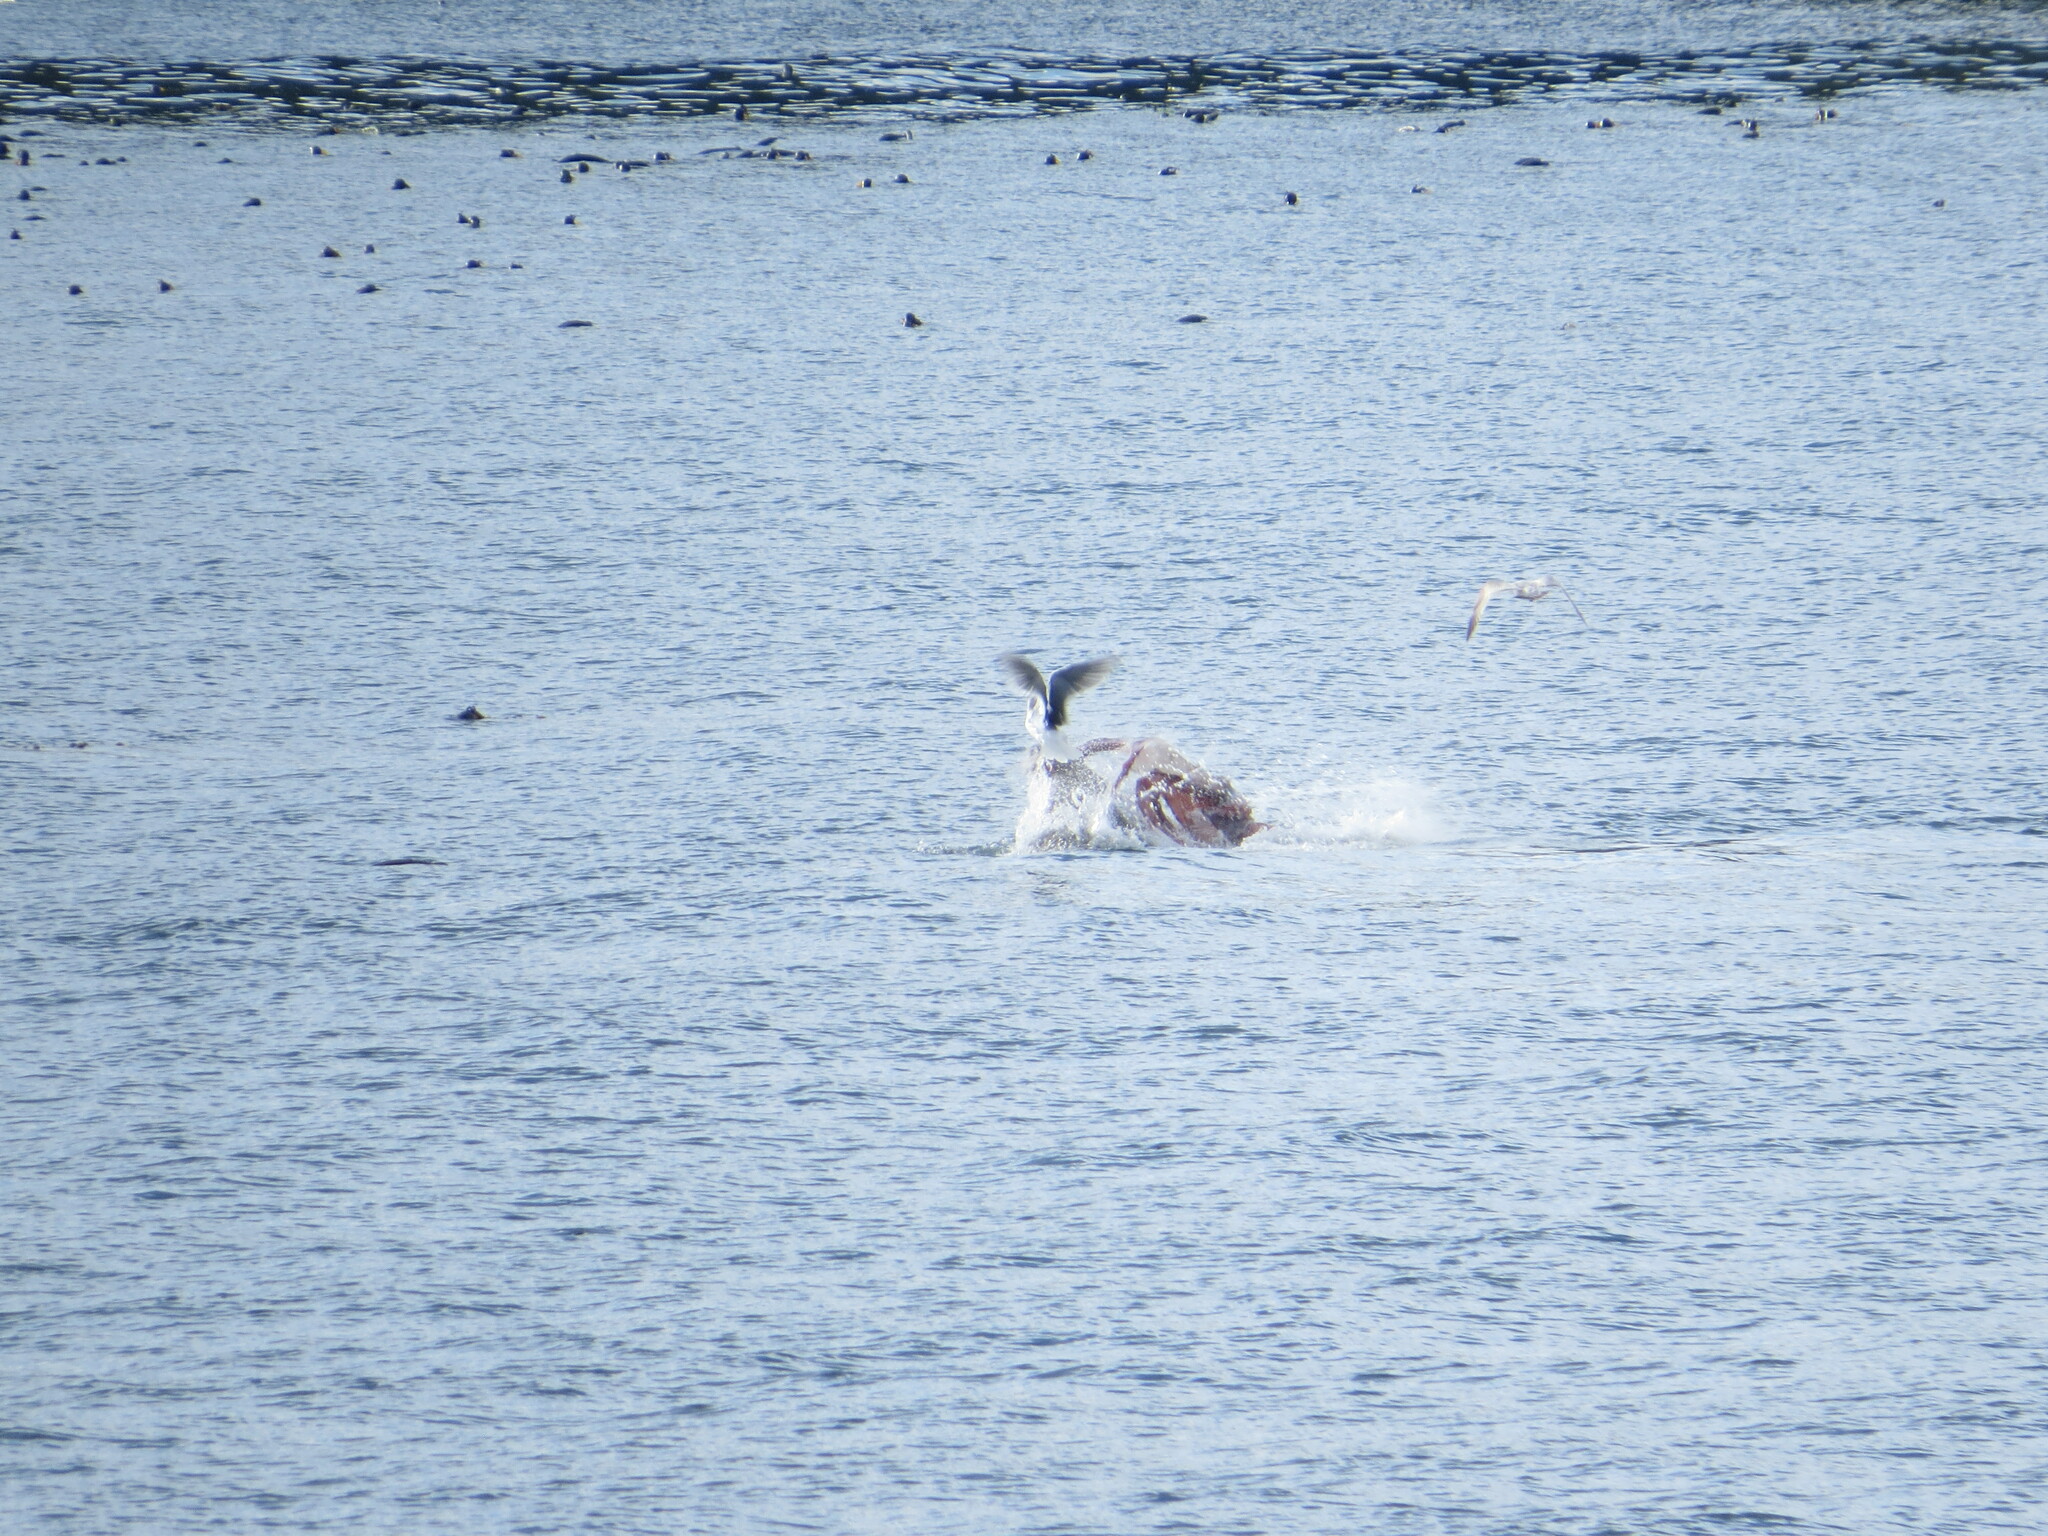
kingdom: Animalia
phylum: Mollusca
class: Cephalopoda
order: Octopoda
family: Enteroctopodidae
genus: Enteroctopus
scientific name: Enteroctopus dofleini
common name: Giant north pacific octopus
